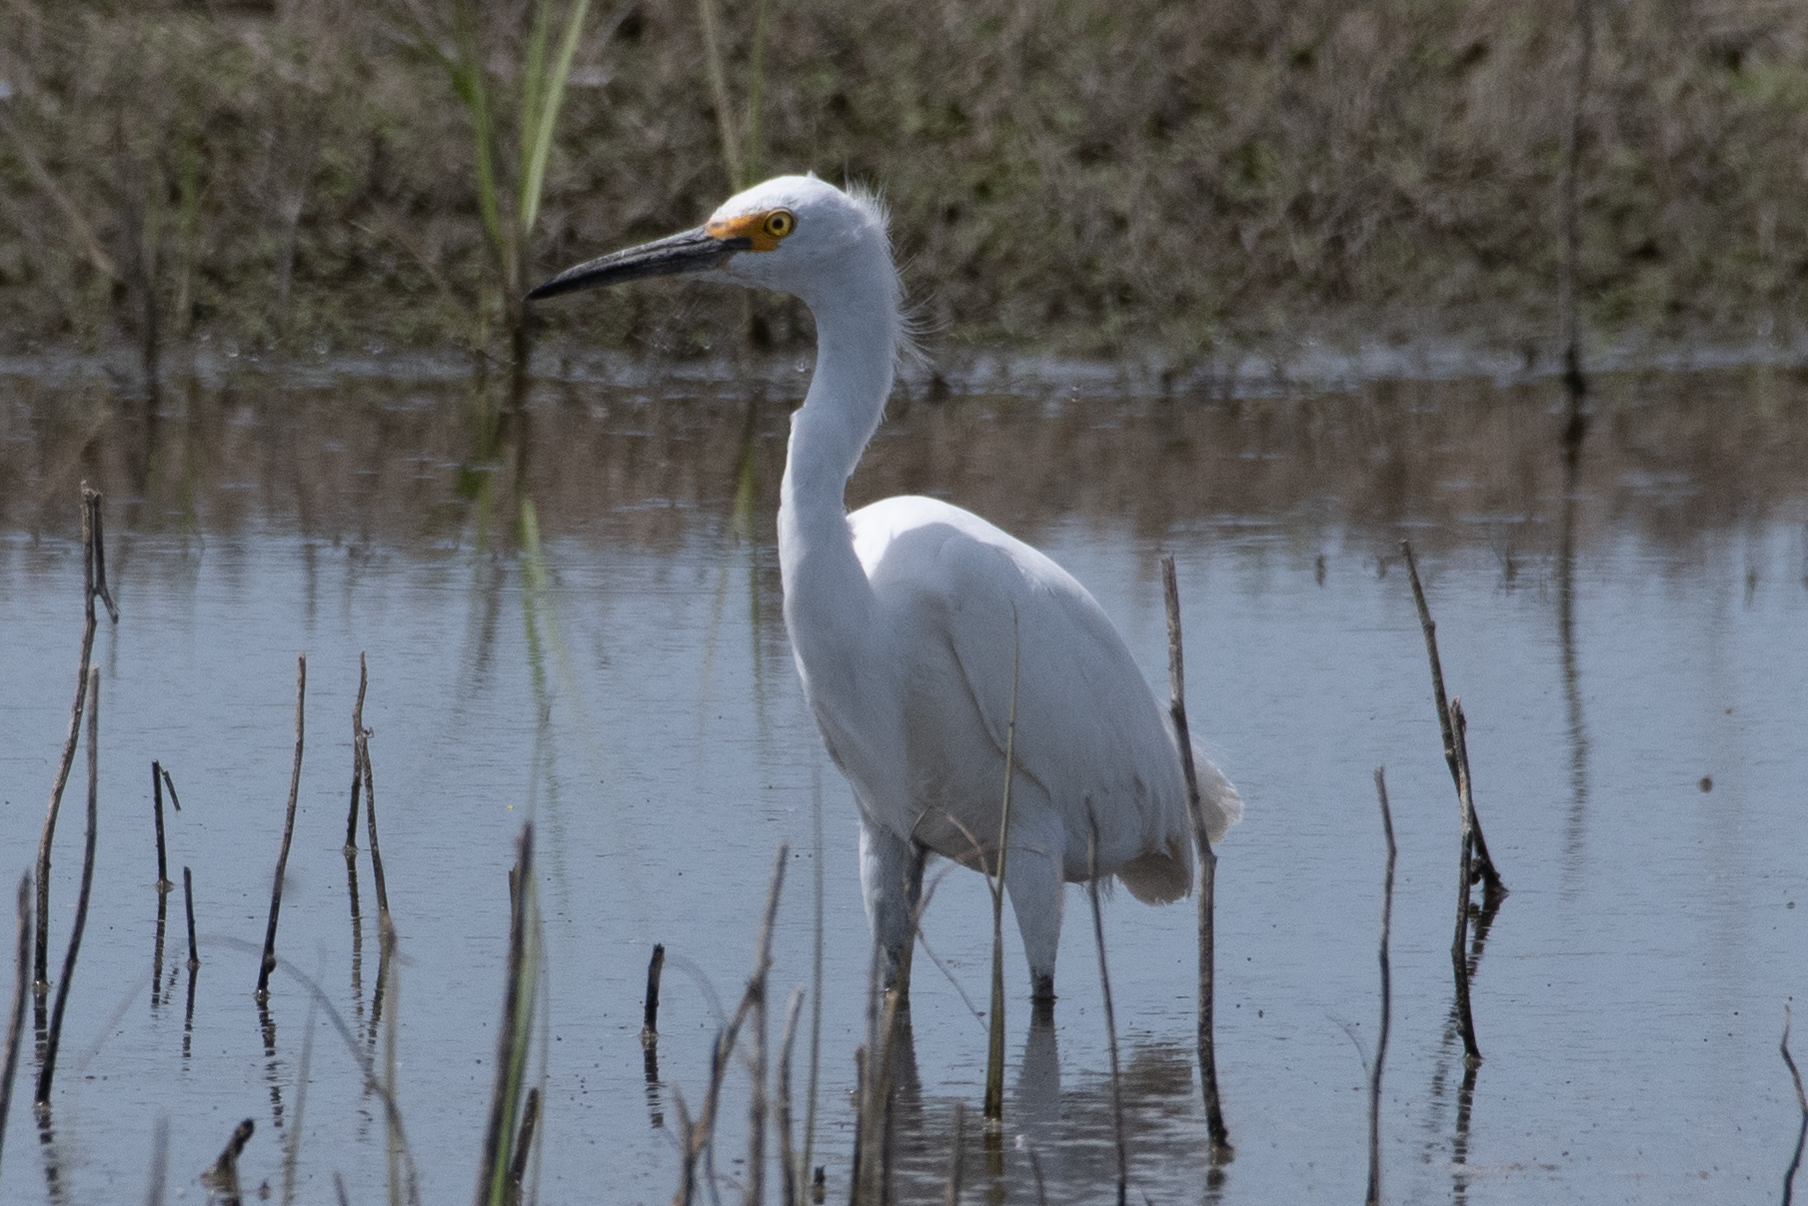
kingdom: Animalia
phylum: Chordata
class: Aves
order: Pelecaniformes
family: Ardeidae
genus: Egretta
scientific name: Egretta thula
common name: Snowy egret
